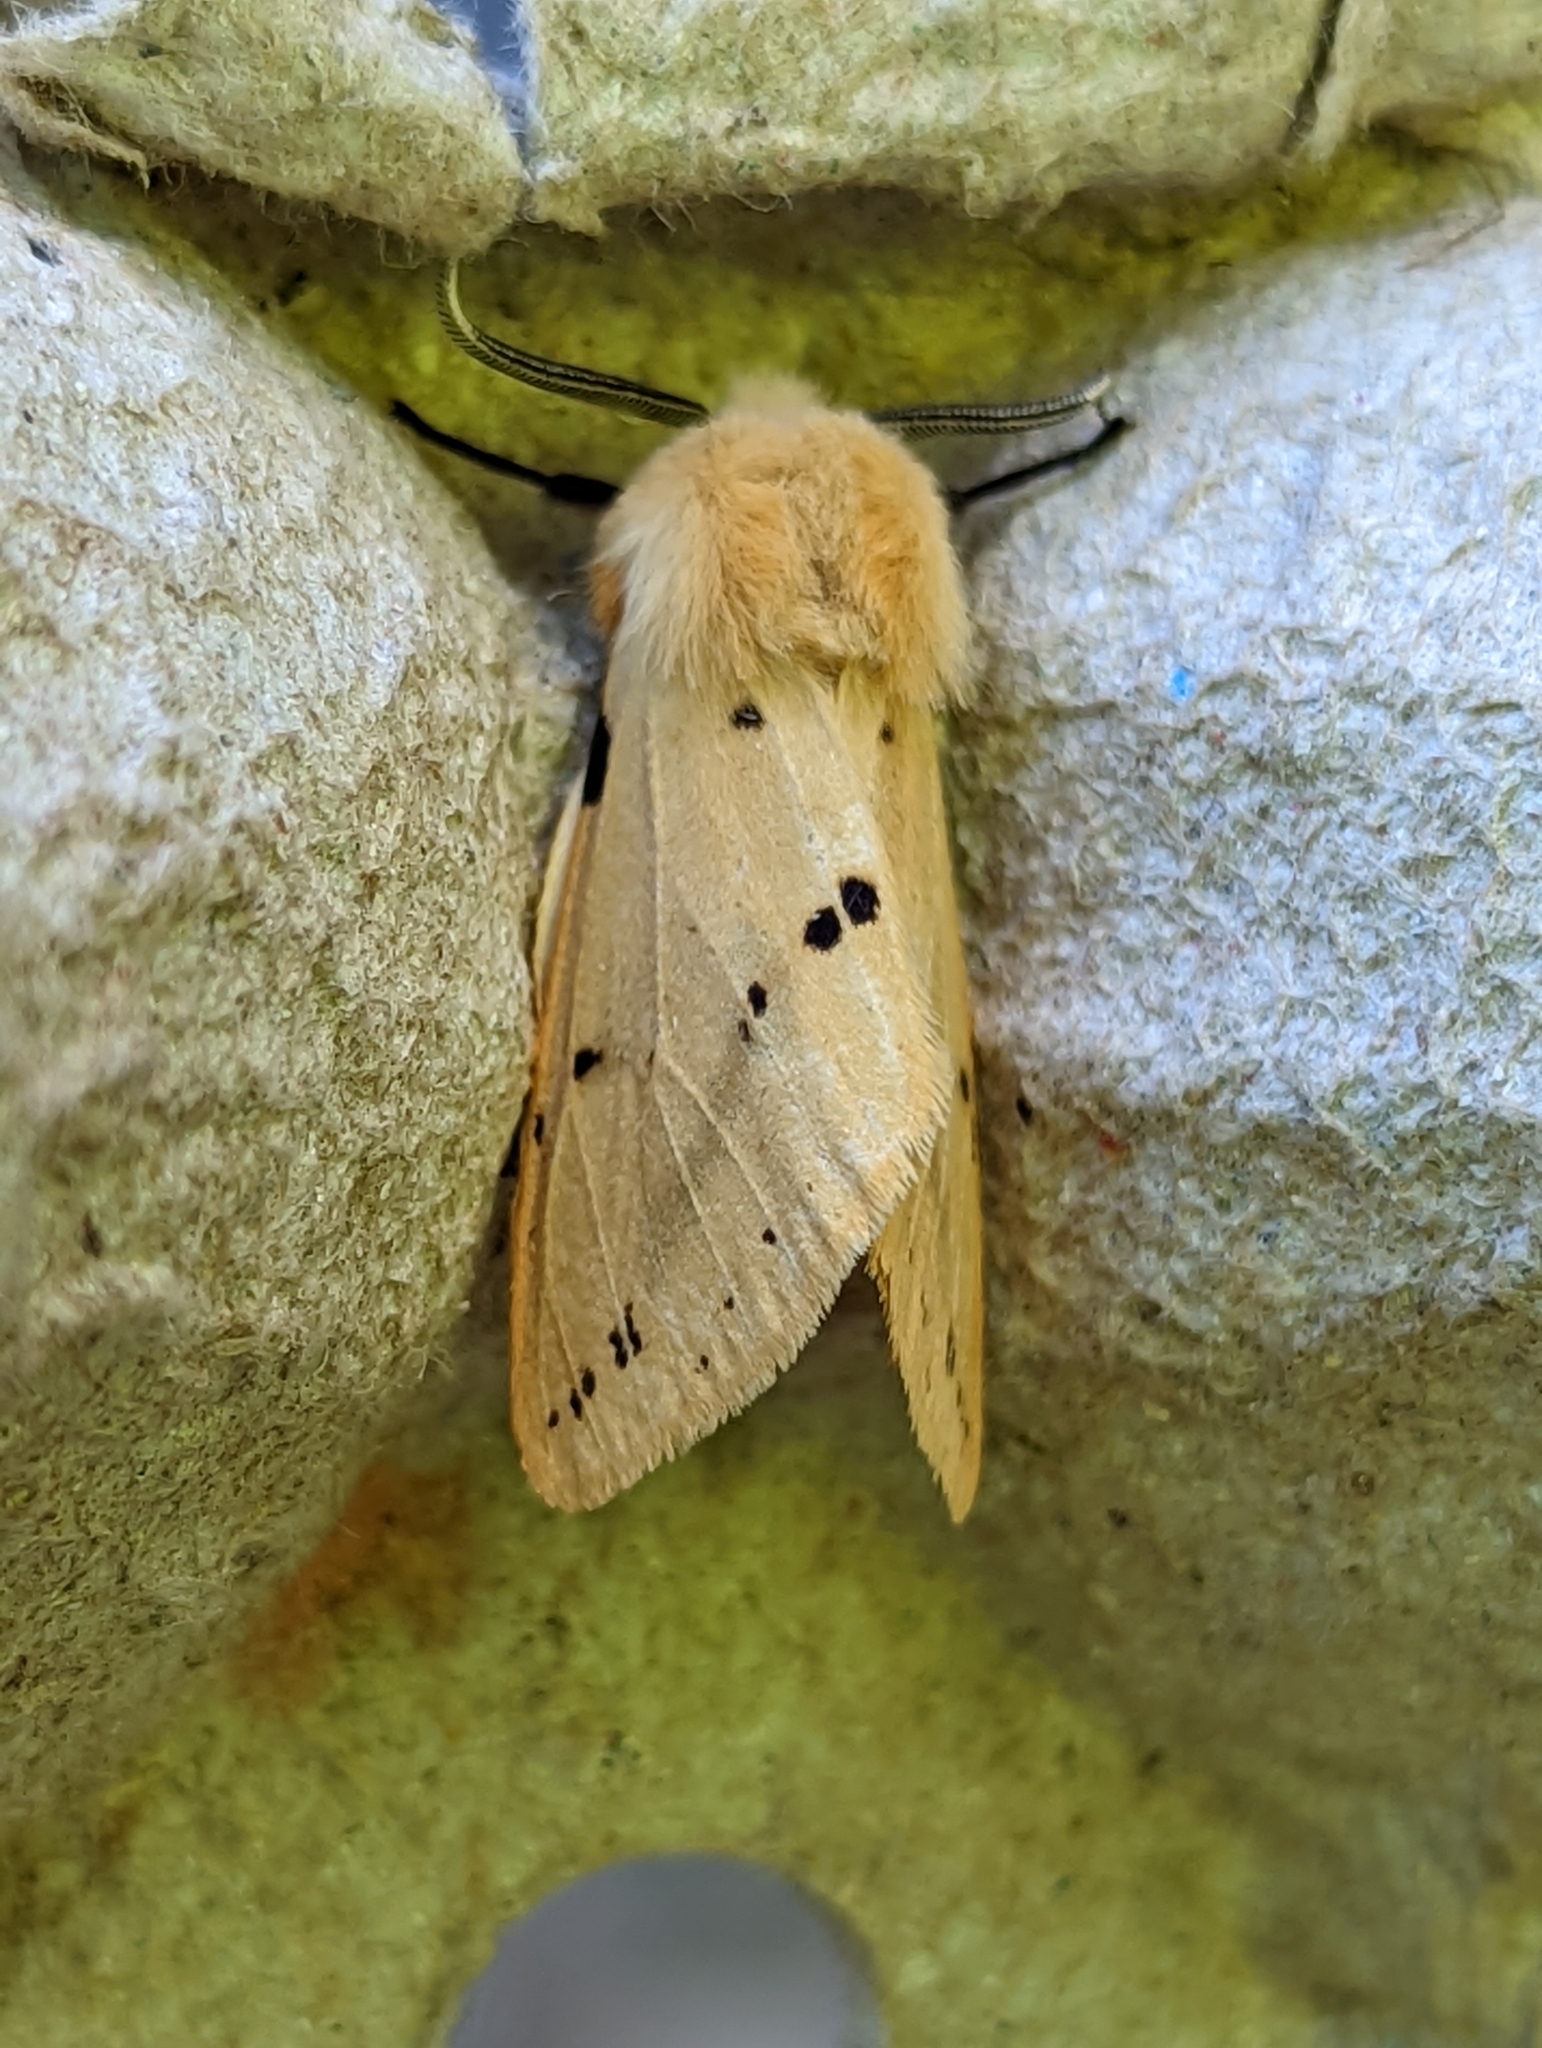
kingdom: Animalia
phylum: Arthropoda
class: Insecta
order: Lepidoptera
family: Erebidae
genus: Spilarctia
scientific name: Spilarctia lutea
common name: Buff ermine
